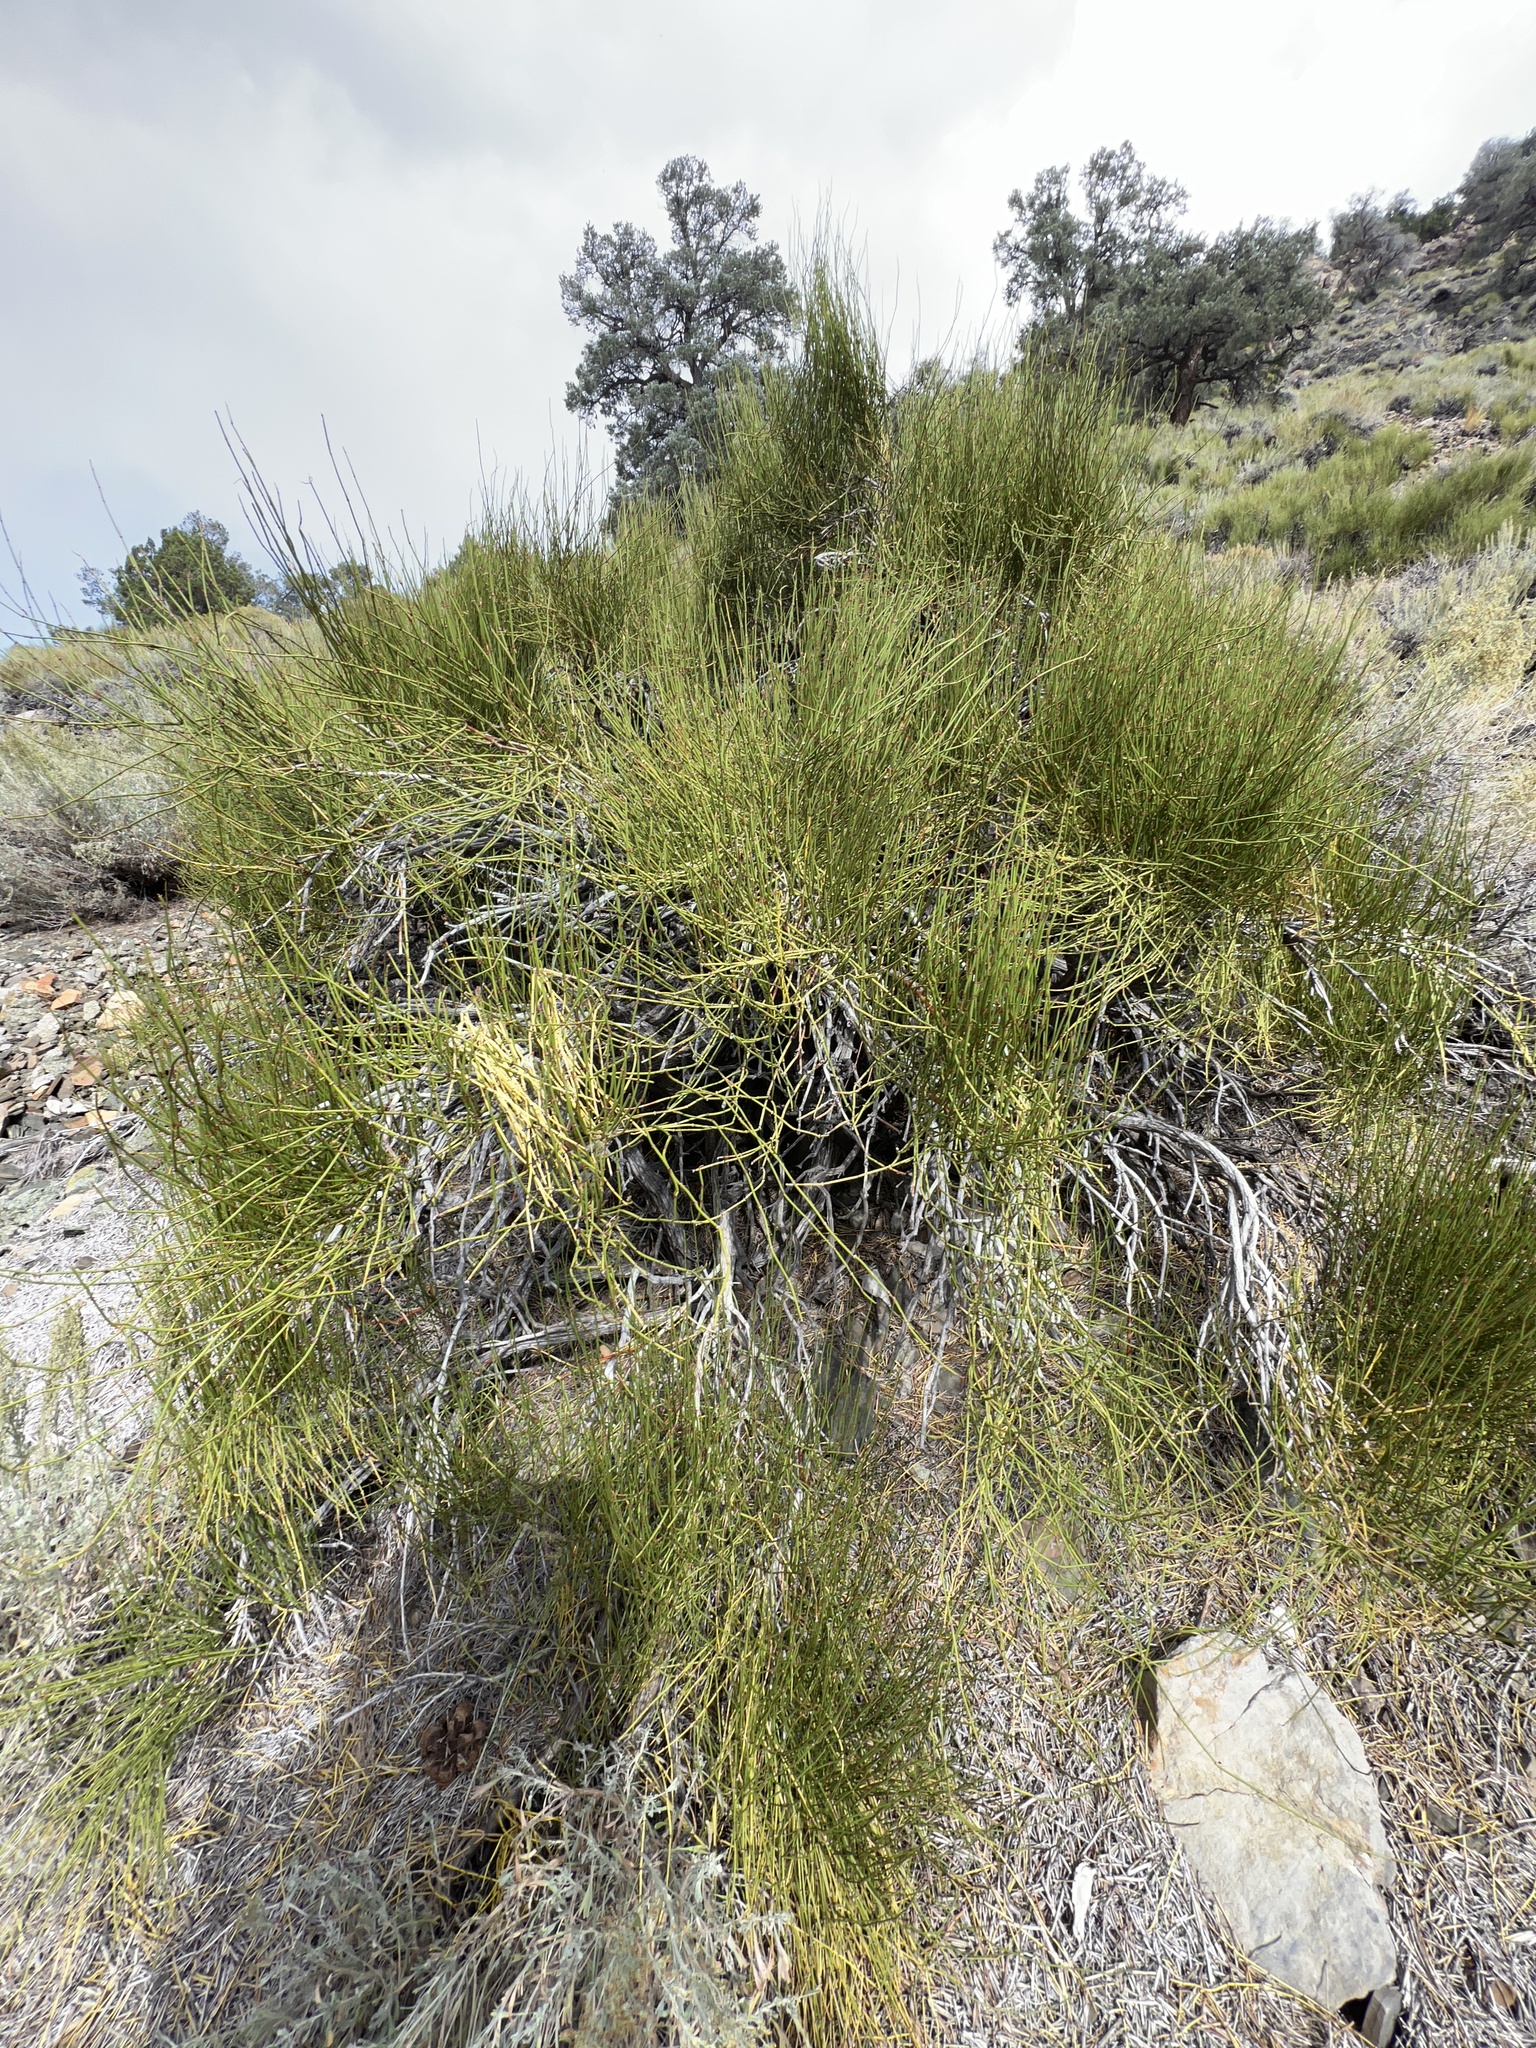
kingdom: Plantae
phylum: Tracheophyta
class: Gnetopsida
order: Ephedrales
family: Ephedraceae
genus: Ephedra
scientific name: Ephedra viridis
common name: Green ephedra
